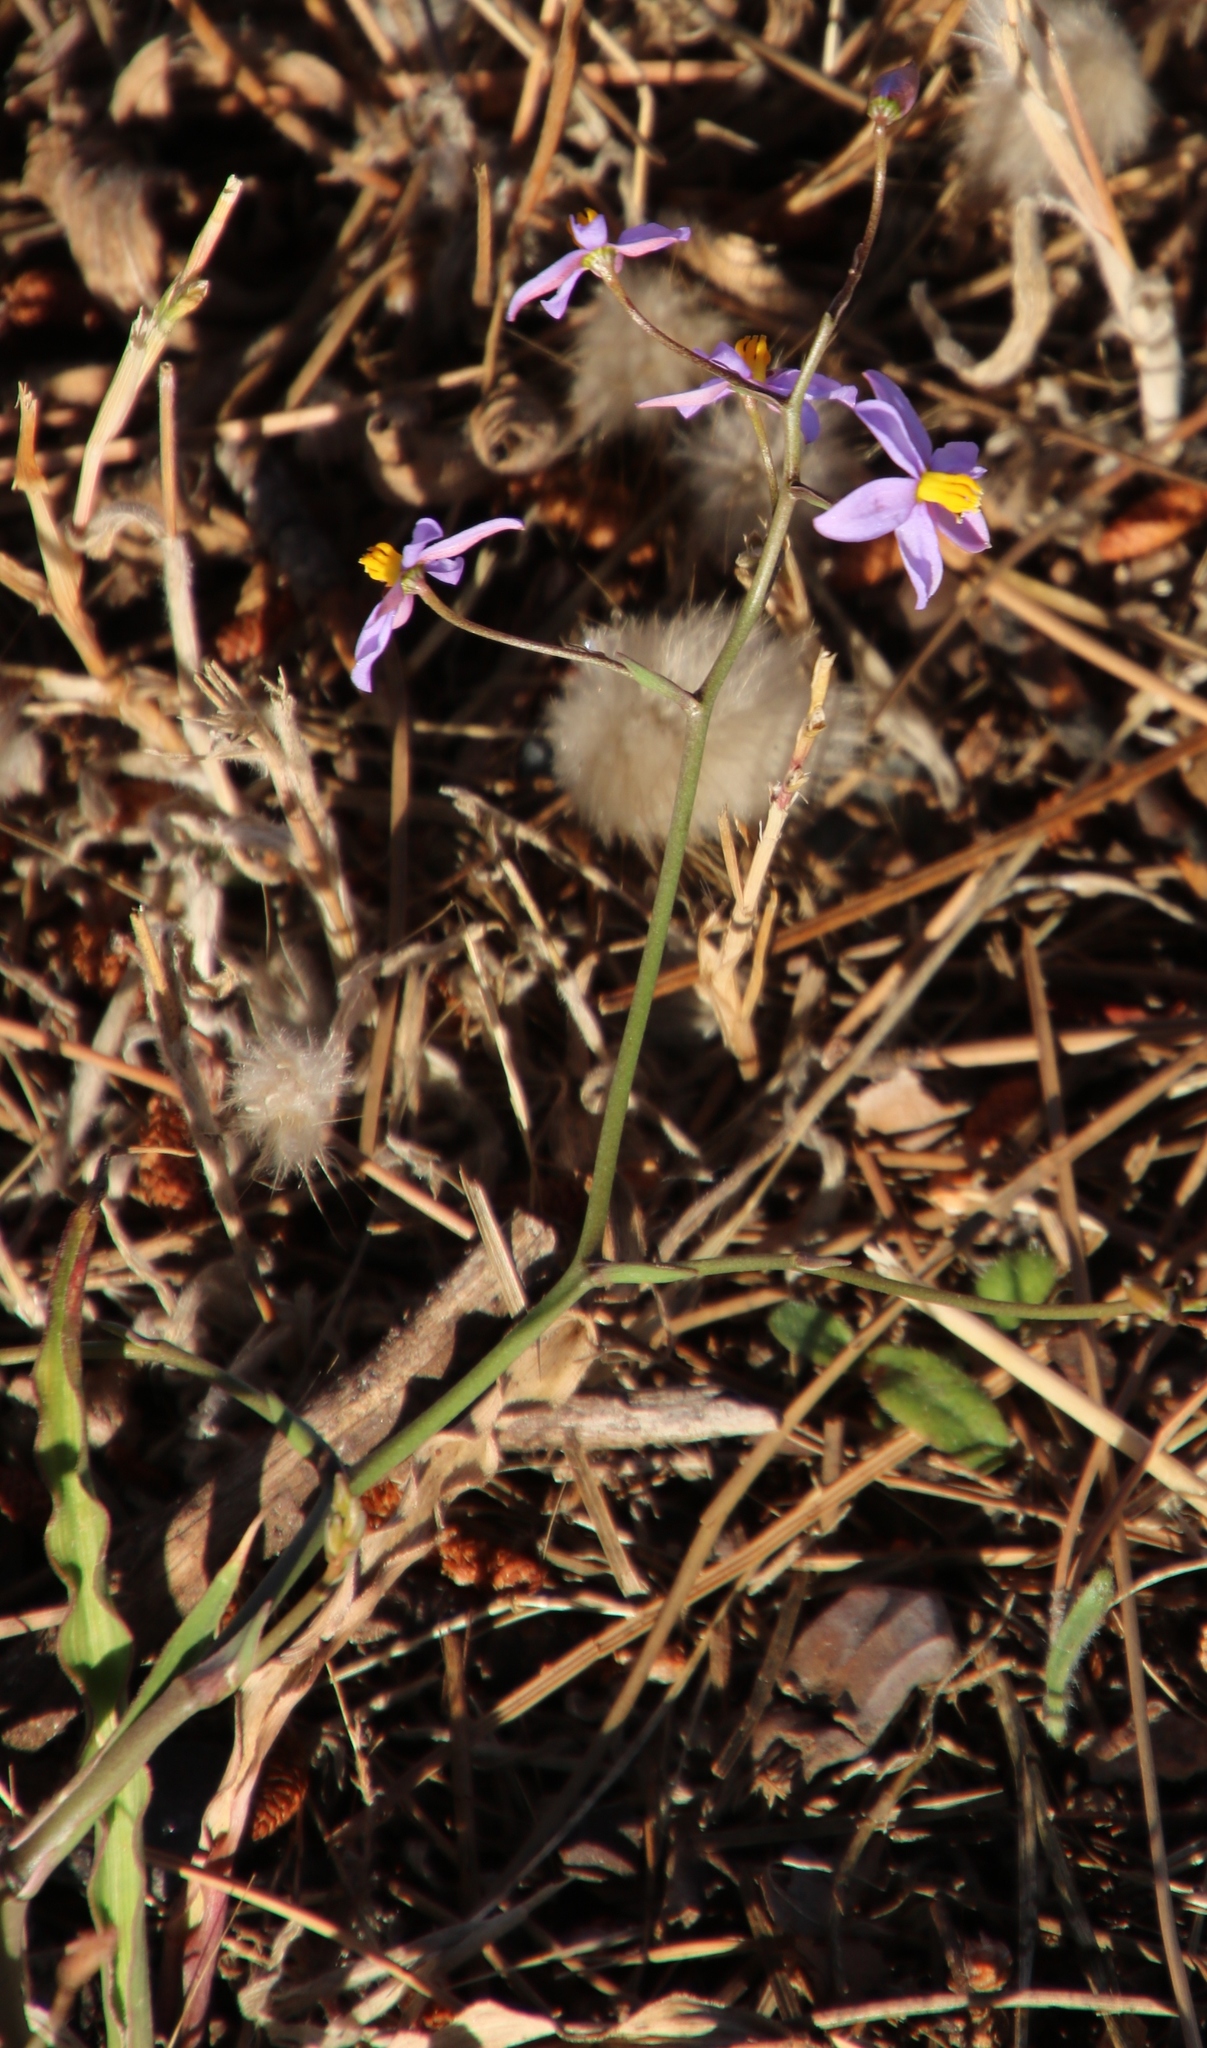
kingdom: Plantae
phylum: Tracheophyta
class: Liliopsida
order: Asparagales
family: Tecophilaeaceae
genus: Cyanella
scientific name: Cyanella hyacinthoides
